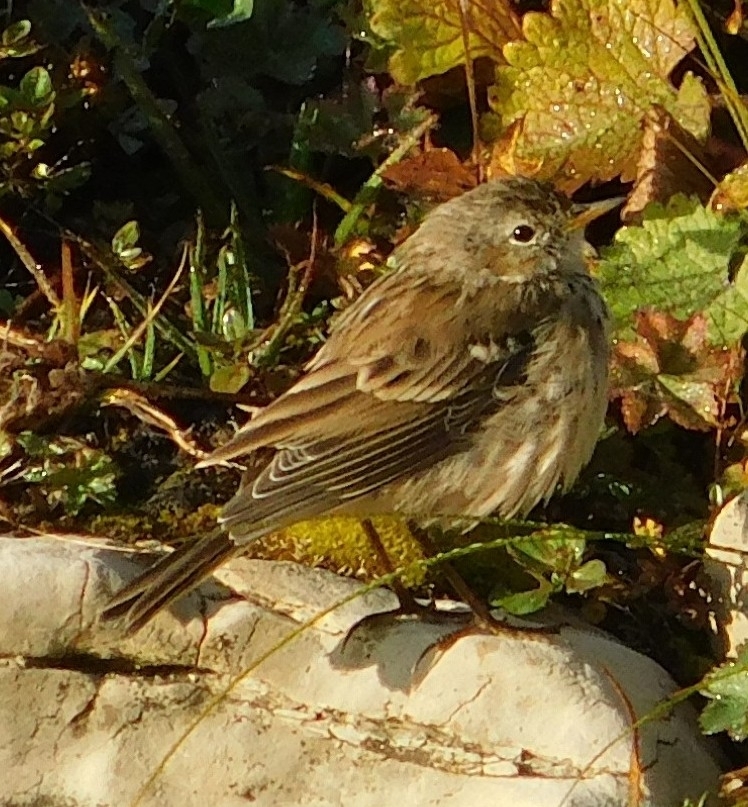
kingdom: Animalia
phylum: Chordata
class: Aves
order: Passeriformes
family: Motacillidae
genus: Anthus
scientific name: Anthus spinoletta
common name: Water pipit
